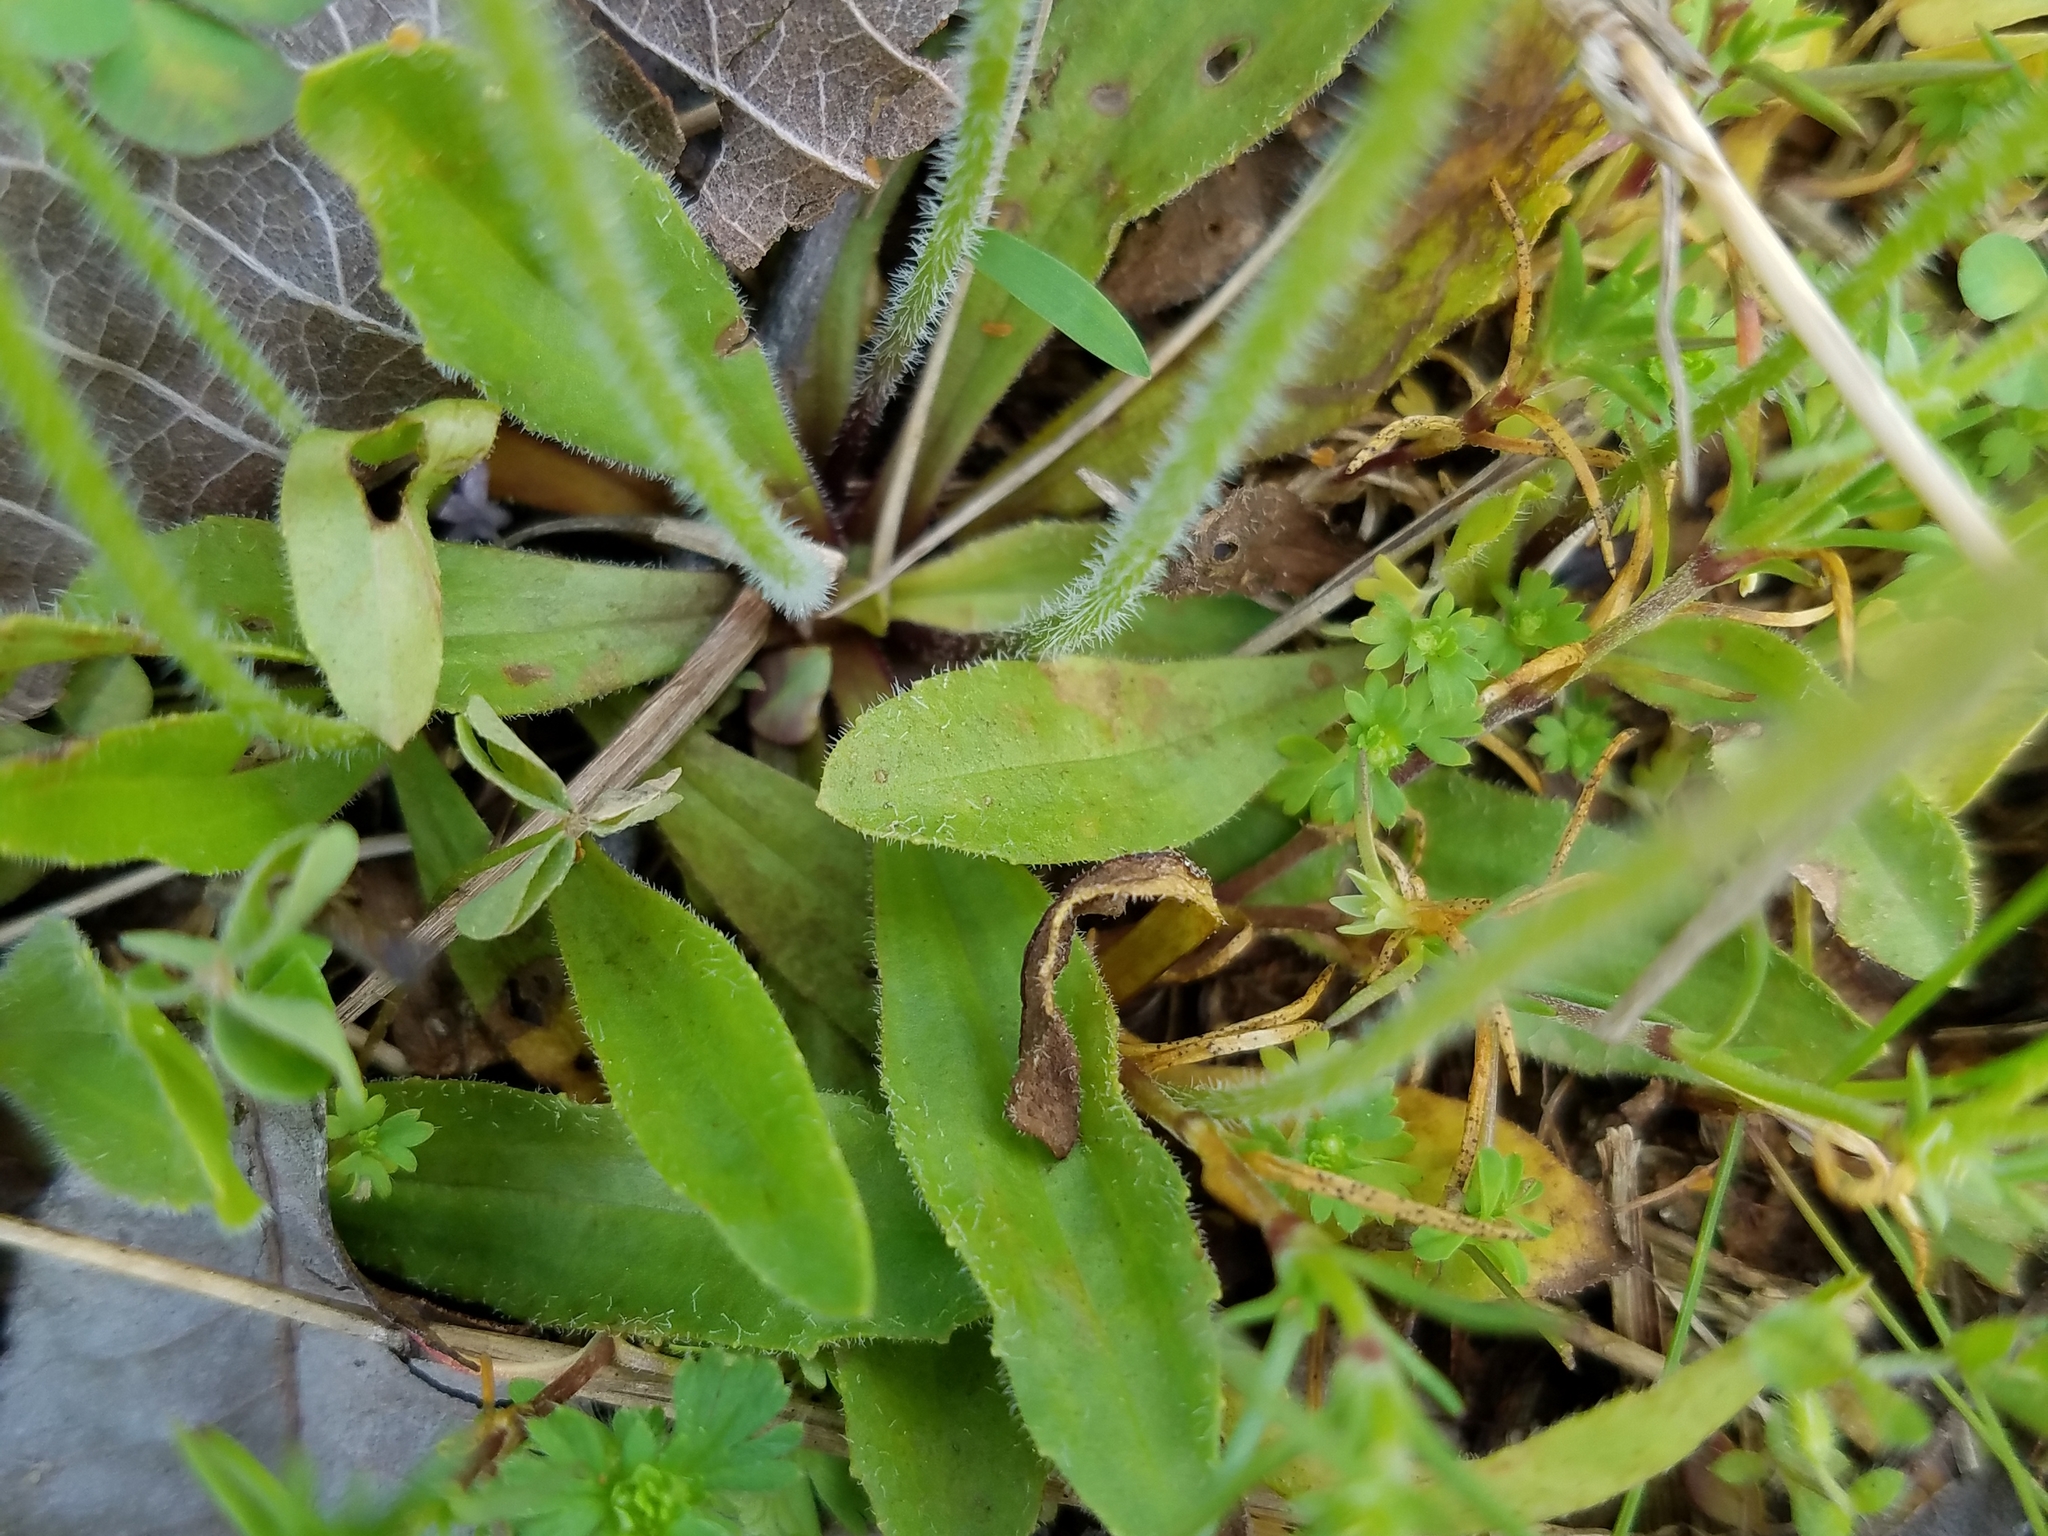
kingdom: Plantae
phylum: Tracheophyta
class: Magnoliopsida
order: Lamiales
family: Plantaginaceae
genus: Plantago
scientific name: Plantago virginica
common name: Hoary plantain
